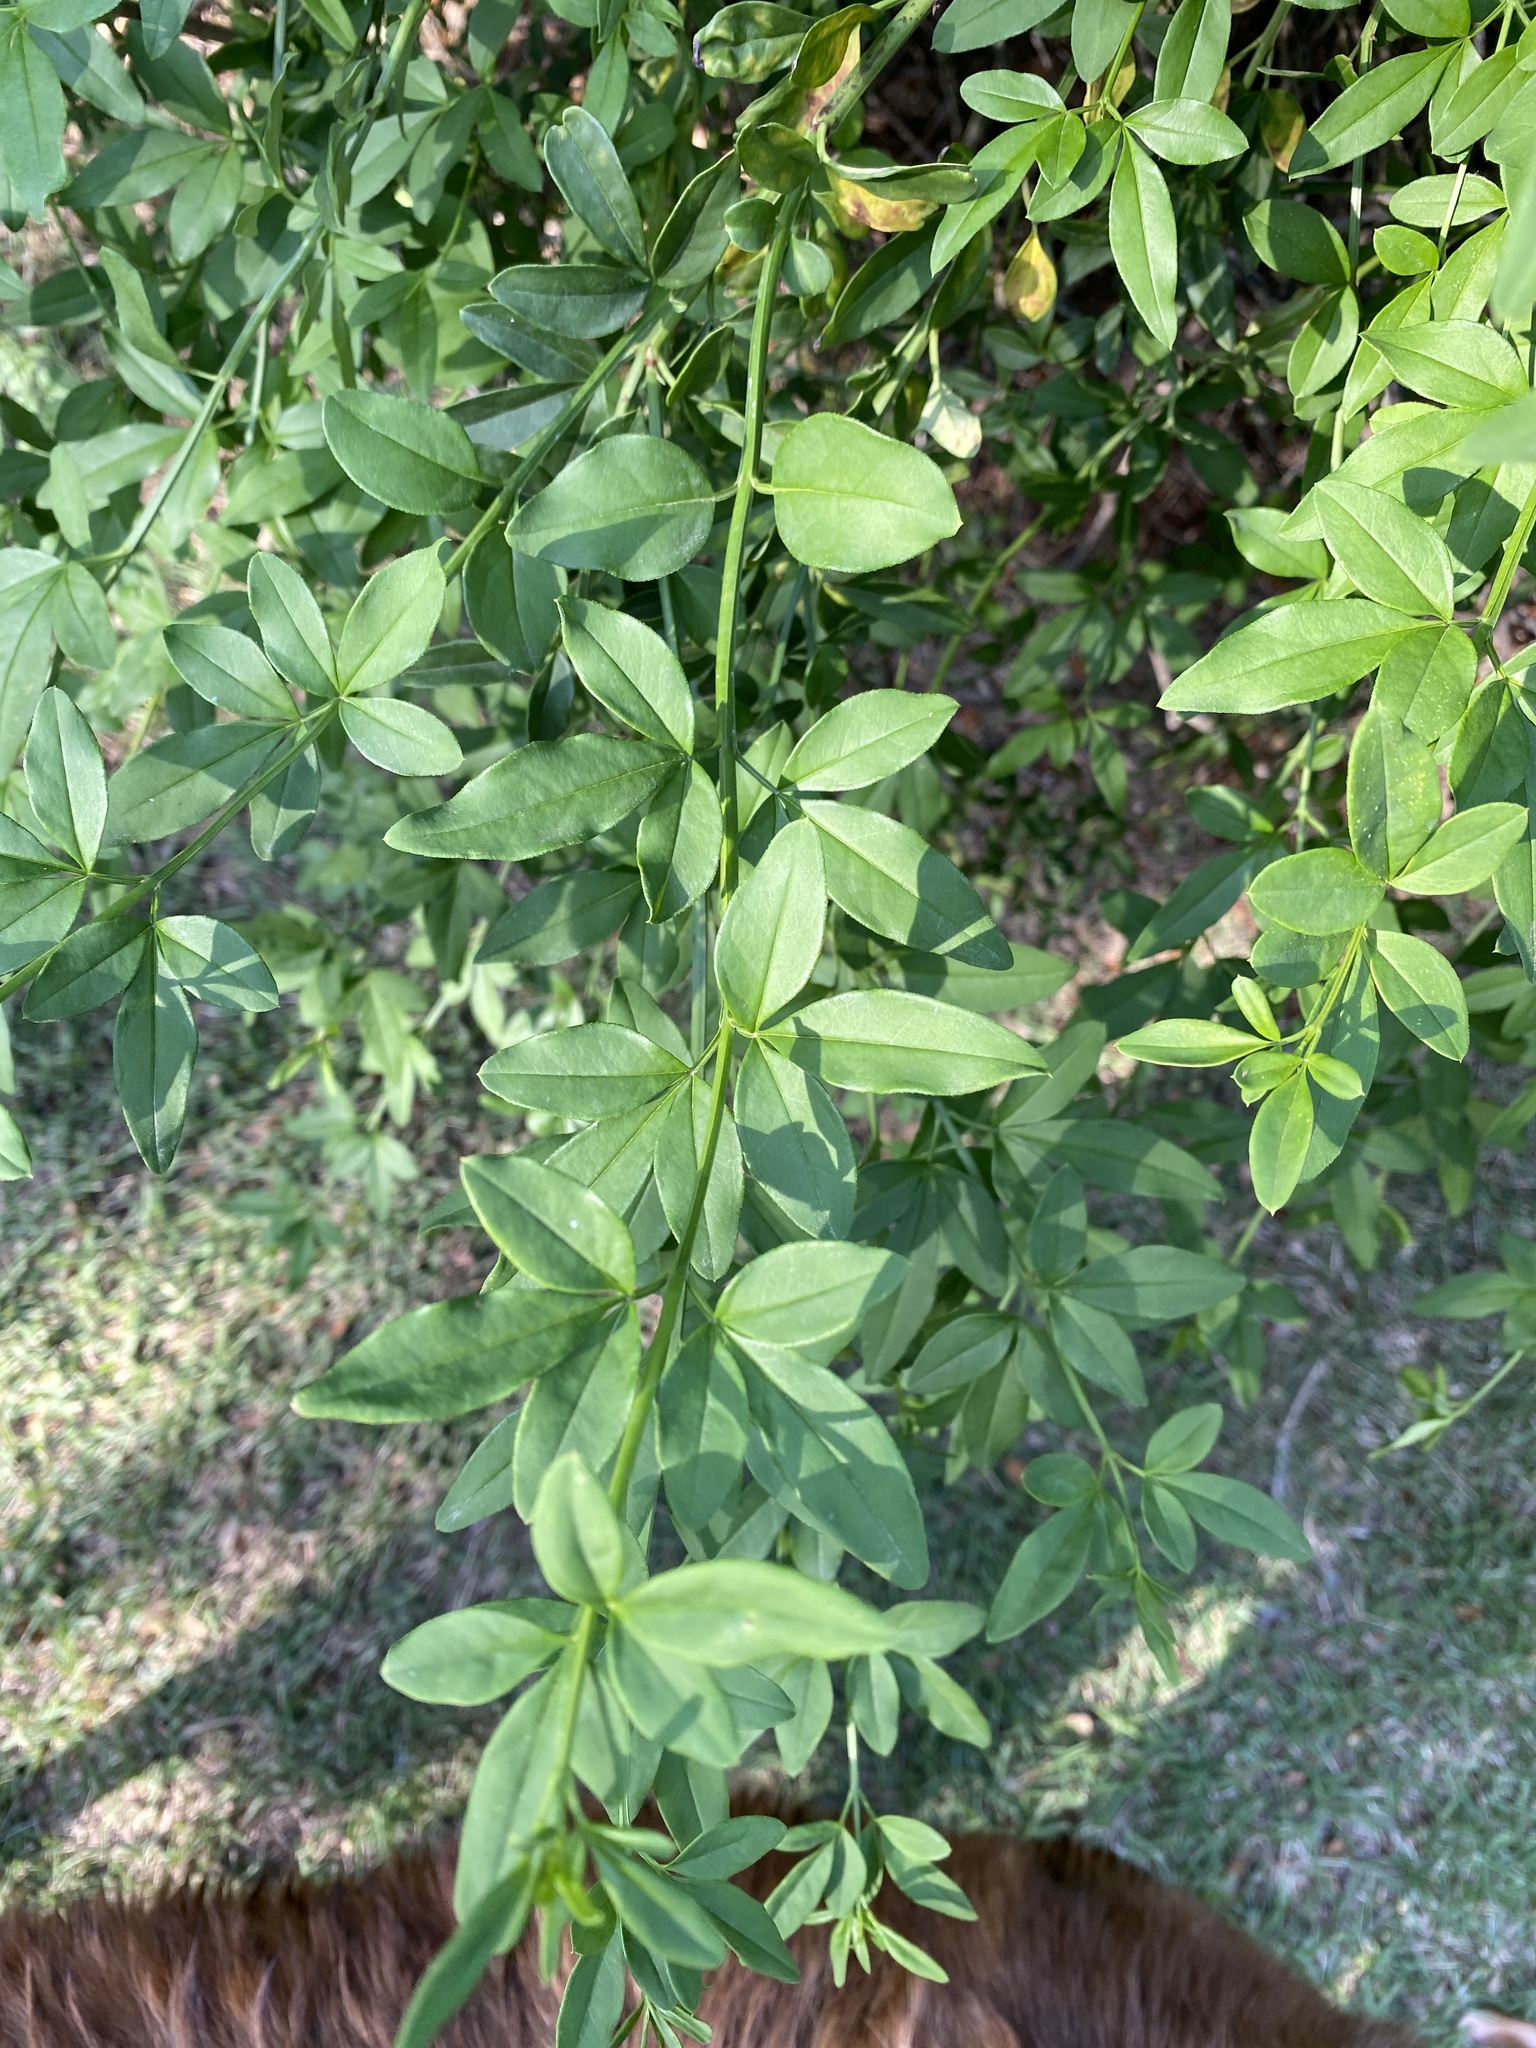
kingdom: Plantae
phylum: Tracheophyta
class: Magnoliopsida
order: Lamiales
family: Oleaceae
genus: Jasminum
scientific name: Jasminum mesnyi
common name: Japanese jasmine
